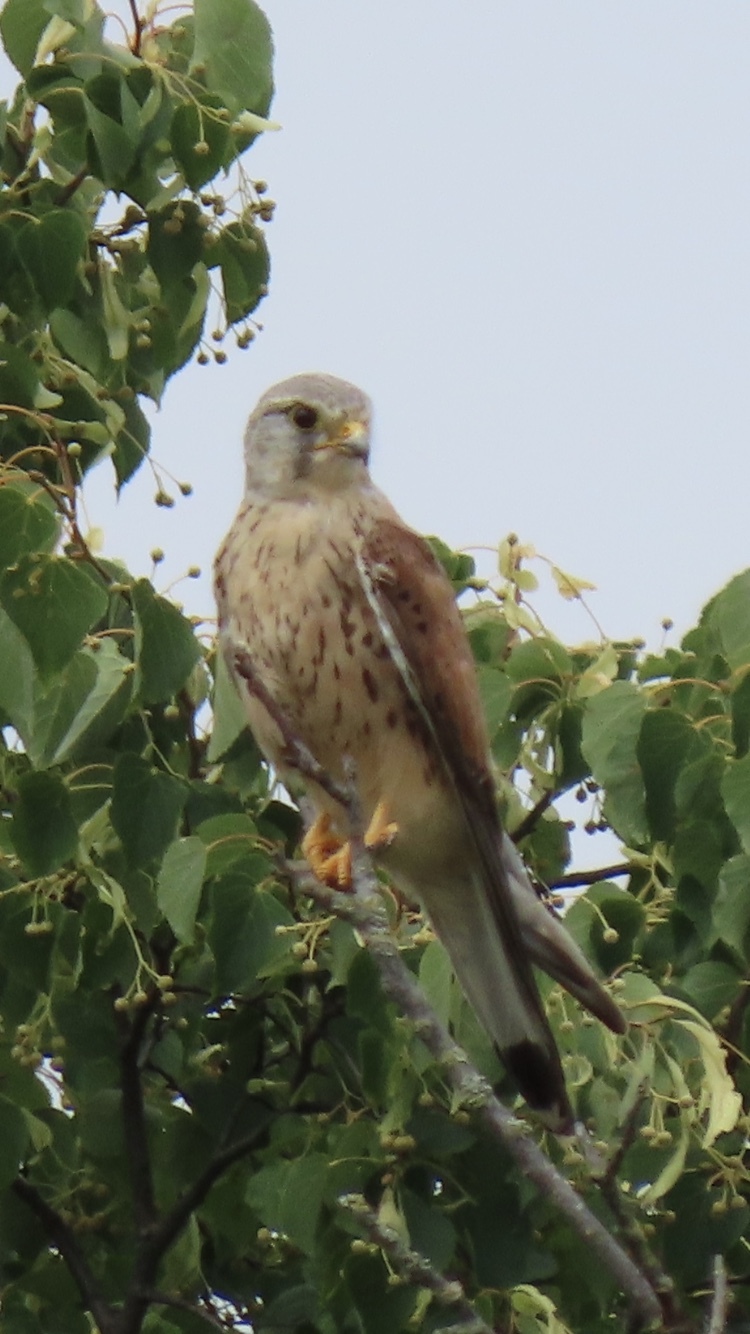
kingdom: Animalia
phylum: Chordata
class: Aves
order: Falconiformes
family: Falconidae
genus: Falco
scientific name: Falco tinnunculus
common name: Common kestrel
